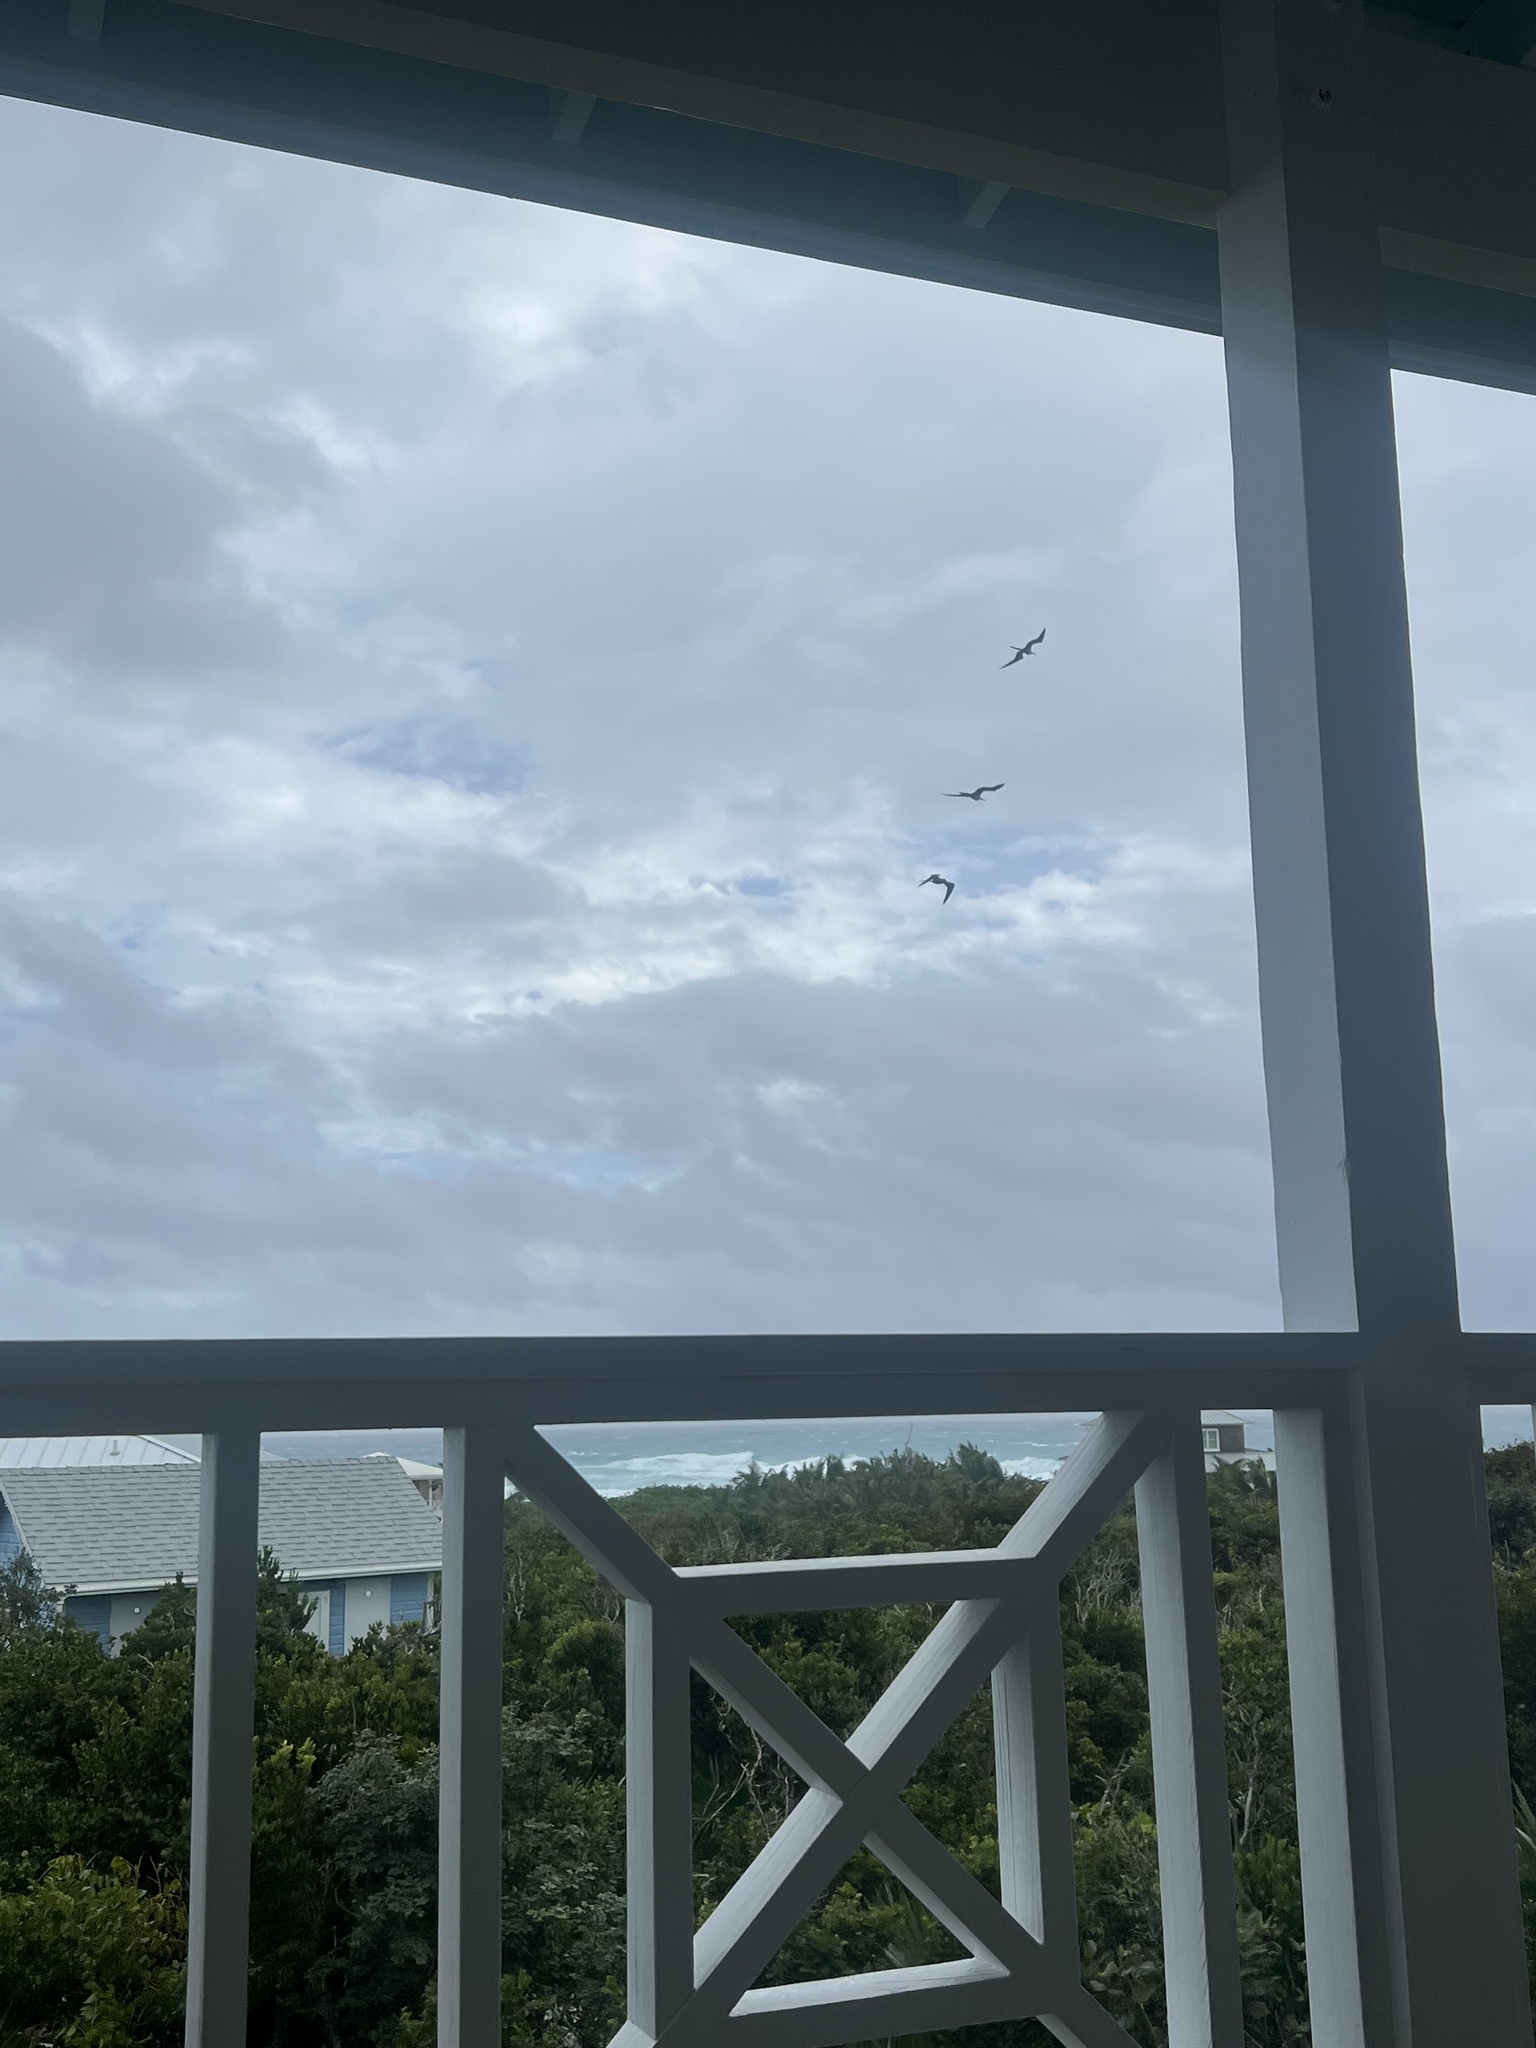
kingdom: Animalia
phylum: Chordata
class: Aves
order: Suliformes
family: Fregatidae
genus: Fregata
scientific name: Fregata magnificens
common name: Magnificent frigatebird
